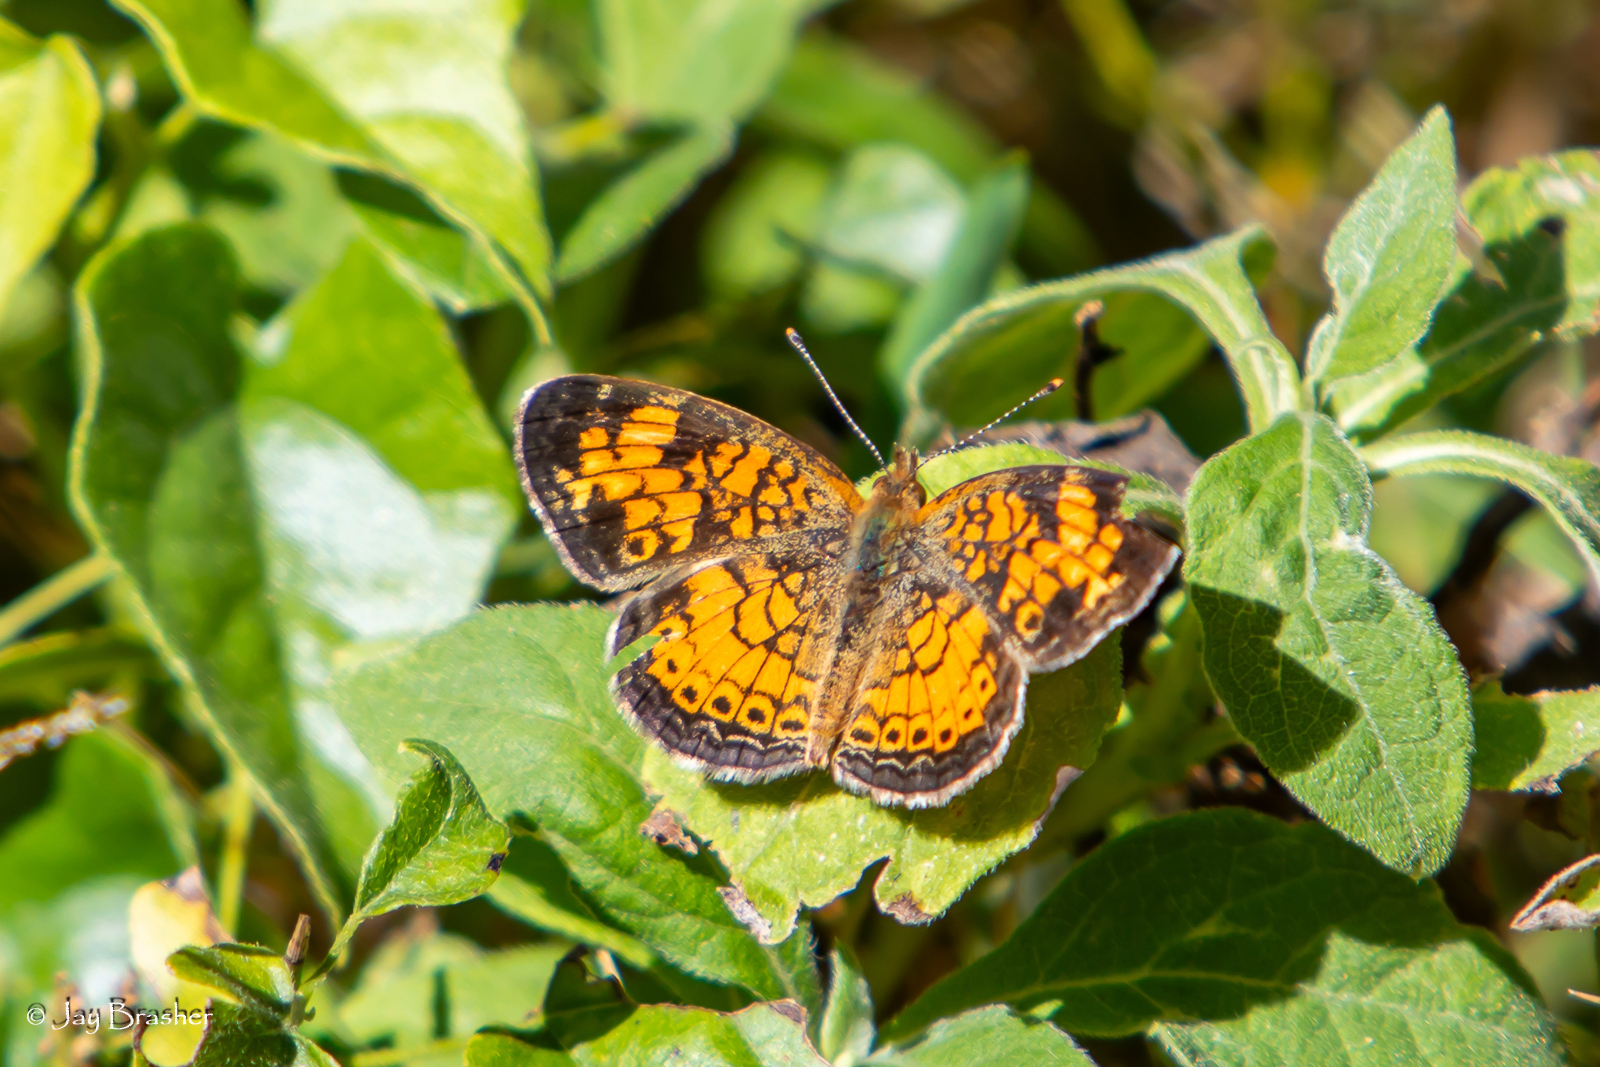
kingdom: Animalia
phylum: Arthropoda
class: Insecta
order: Lepidoptera
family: Nymphalidae
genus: Phyciodes
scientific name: Phyciodes tharos
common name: Pearl crescent
